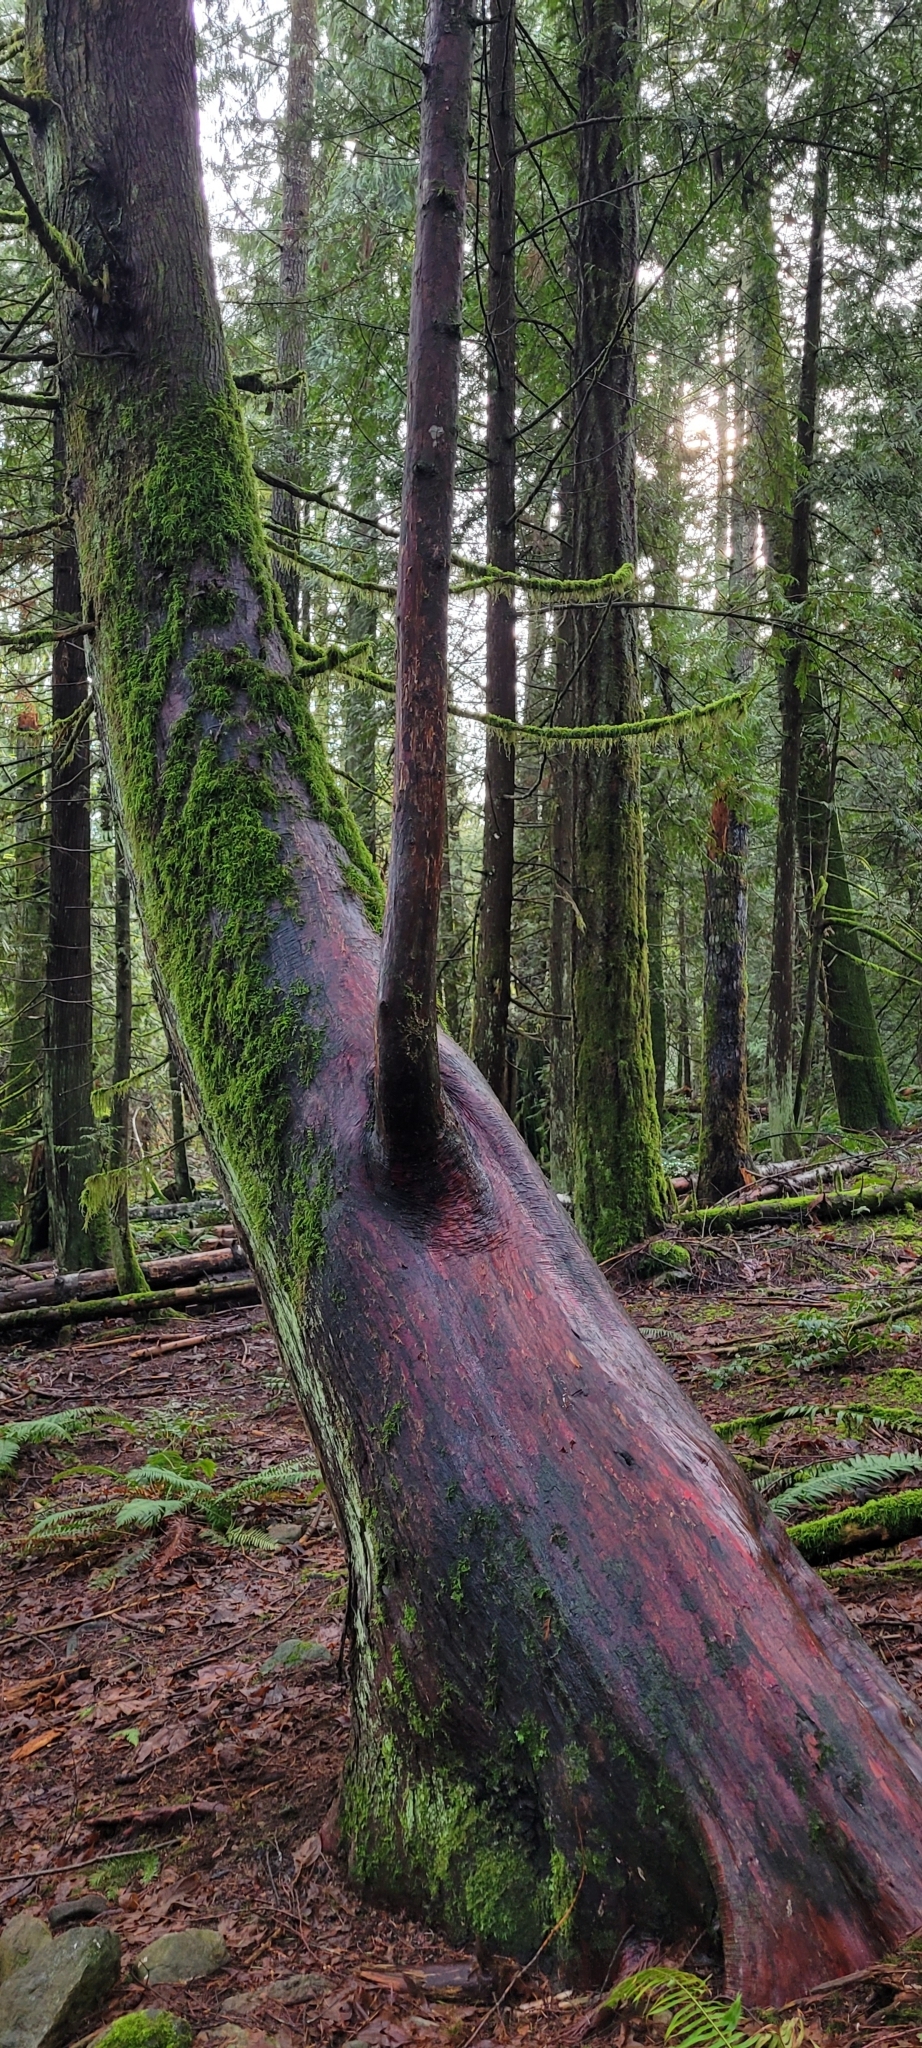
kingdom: Plantae
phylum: Tracheophyta
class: Pinopsida
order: Pinales
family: Cupressaceae
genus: Thuja
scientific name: Thuja plicata
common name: Western red-cedar
